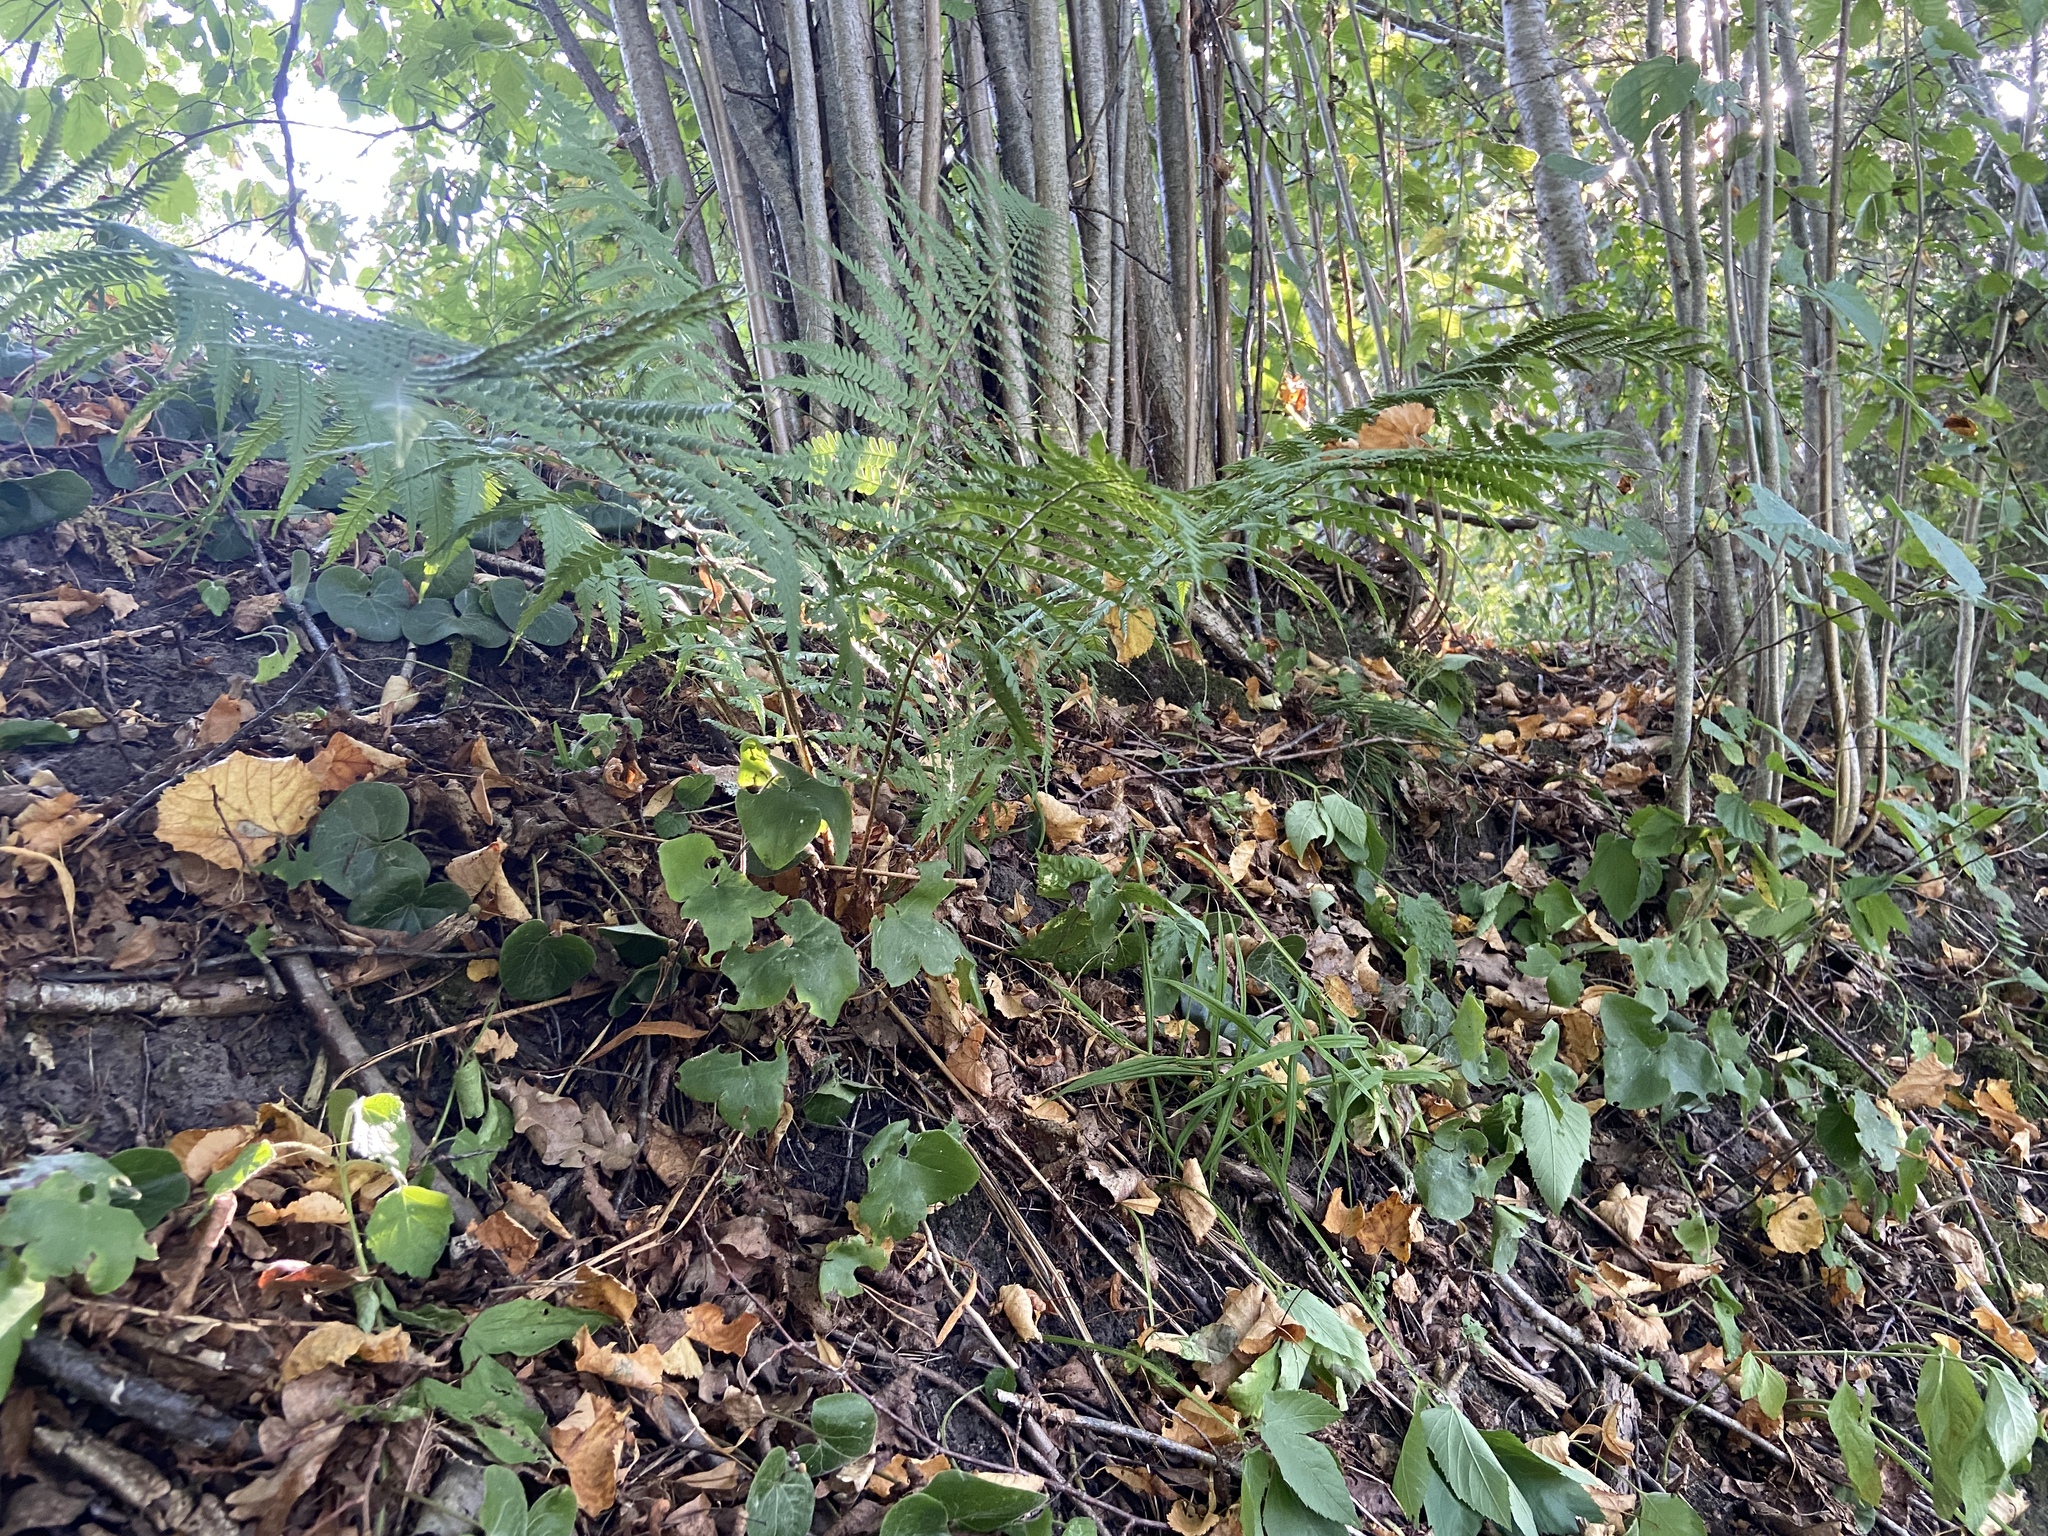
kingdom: Plantae
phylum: Tracheophyta
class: Polypodiopsida
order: Polypodiales
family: Dryopteridaceae
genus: Dryopteris
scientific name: Dryopteris filix-mas
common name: Male fern
